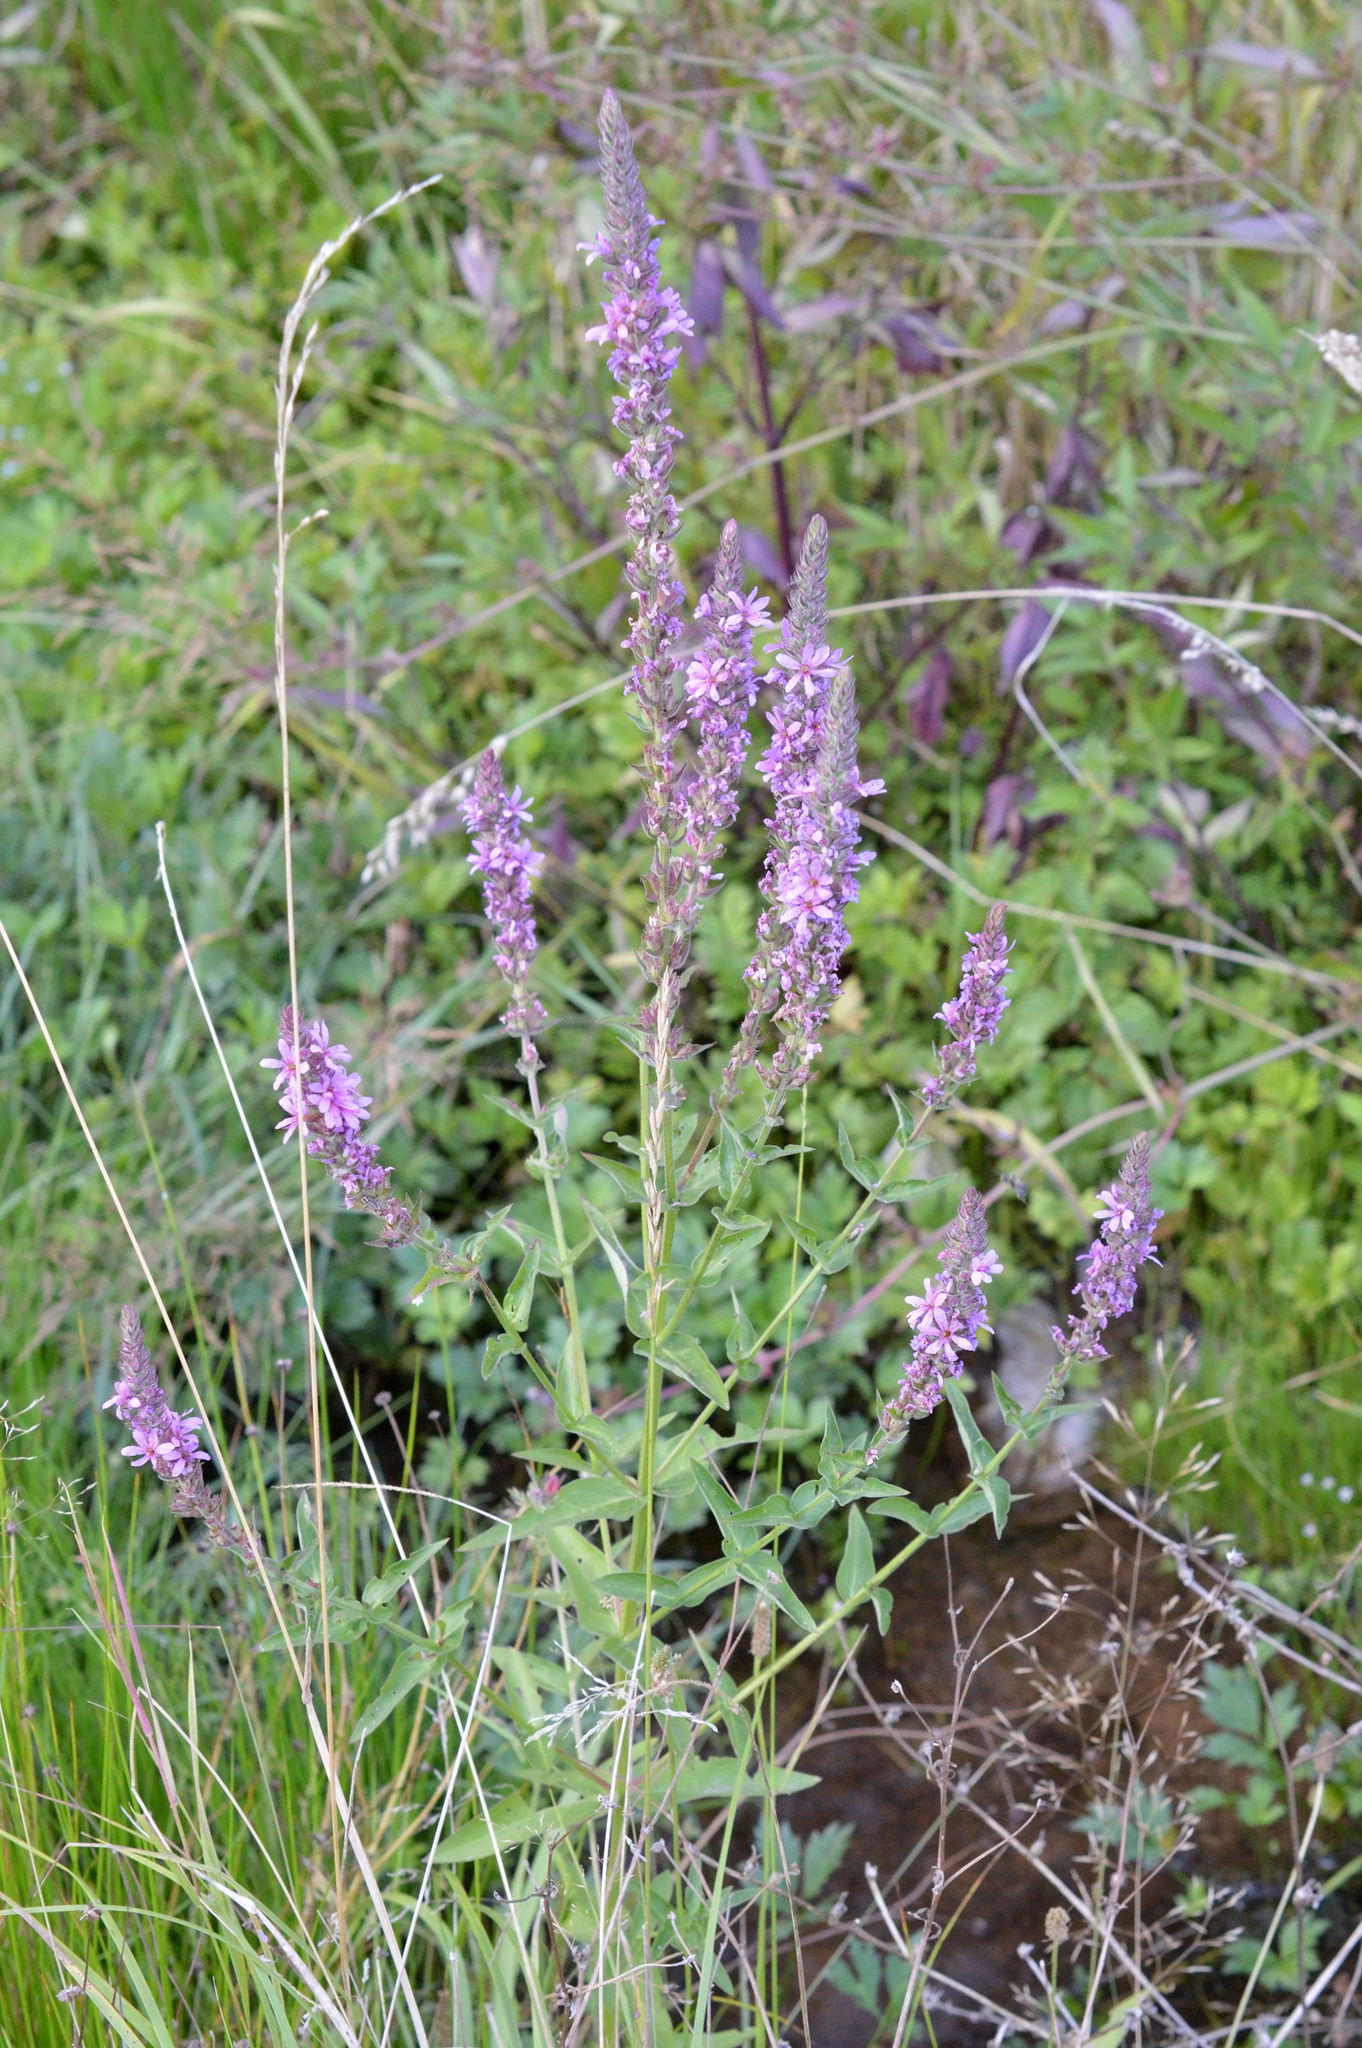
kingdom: Plantae
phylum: Tracheophyta
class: Magnoliopsida
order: Myrtales
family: Lythraceae
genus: Lythrum
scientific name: Lythrum salicaria
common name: Purple loosestrife
